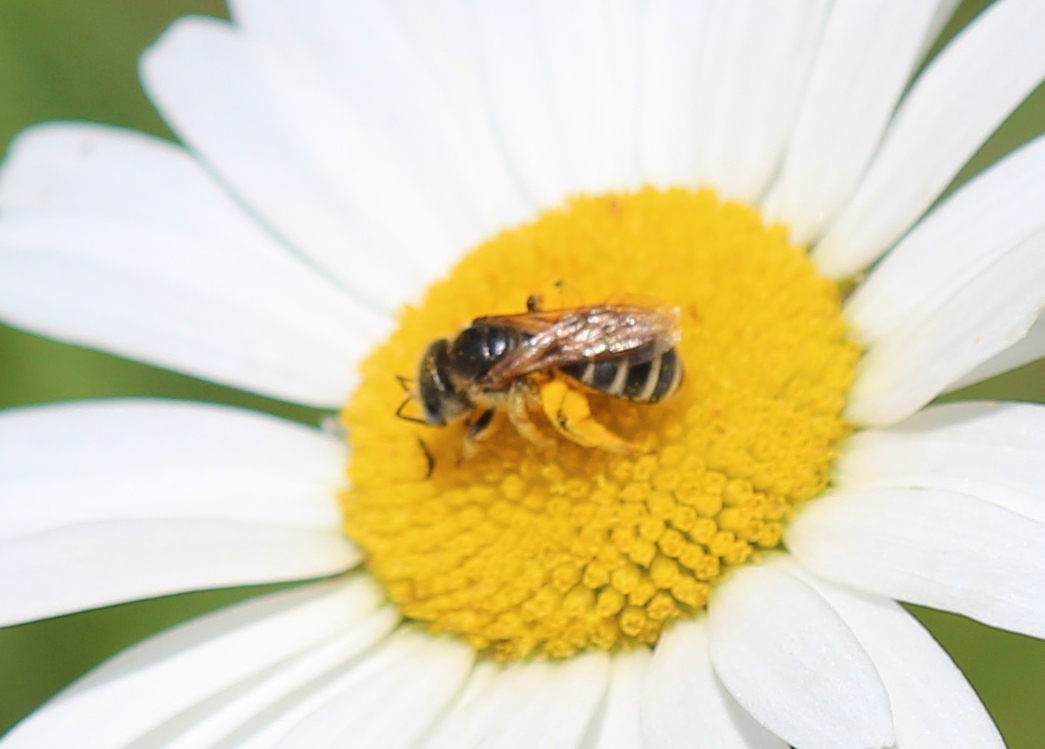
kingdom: Animalia
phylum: Arthropoda
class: Insecta
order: Hymenoptera
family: Halictidae
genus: Halictus
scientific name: Halictus ligatus
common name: Ligated furrow bee
